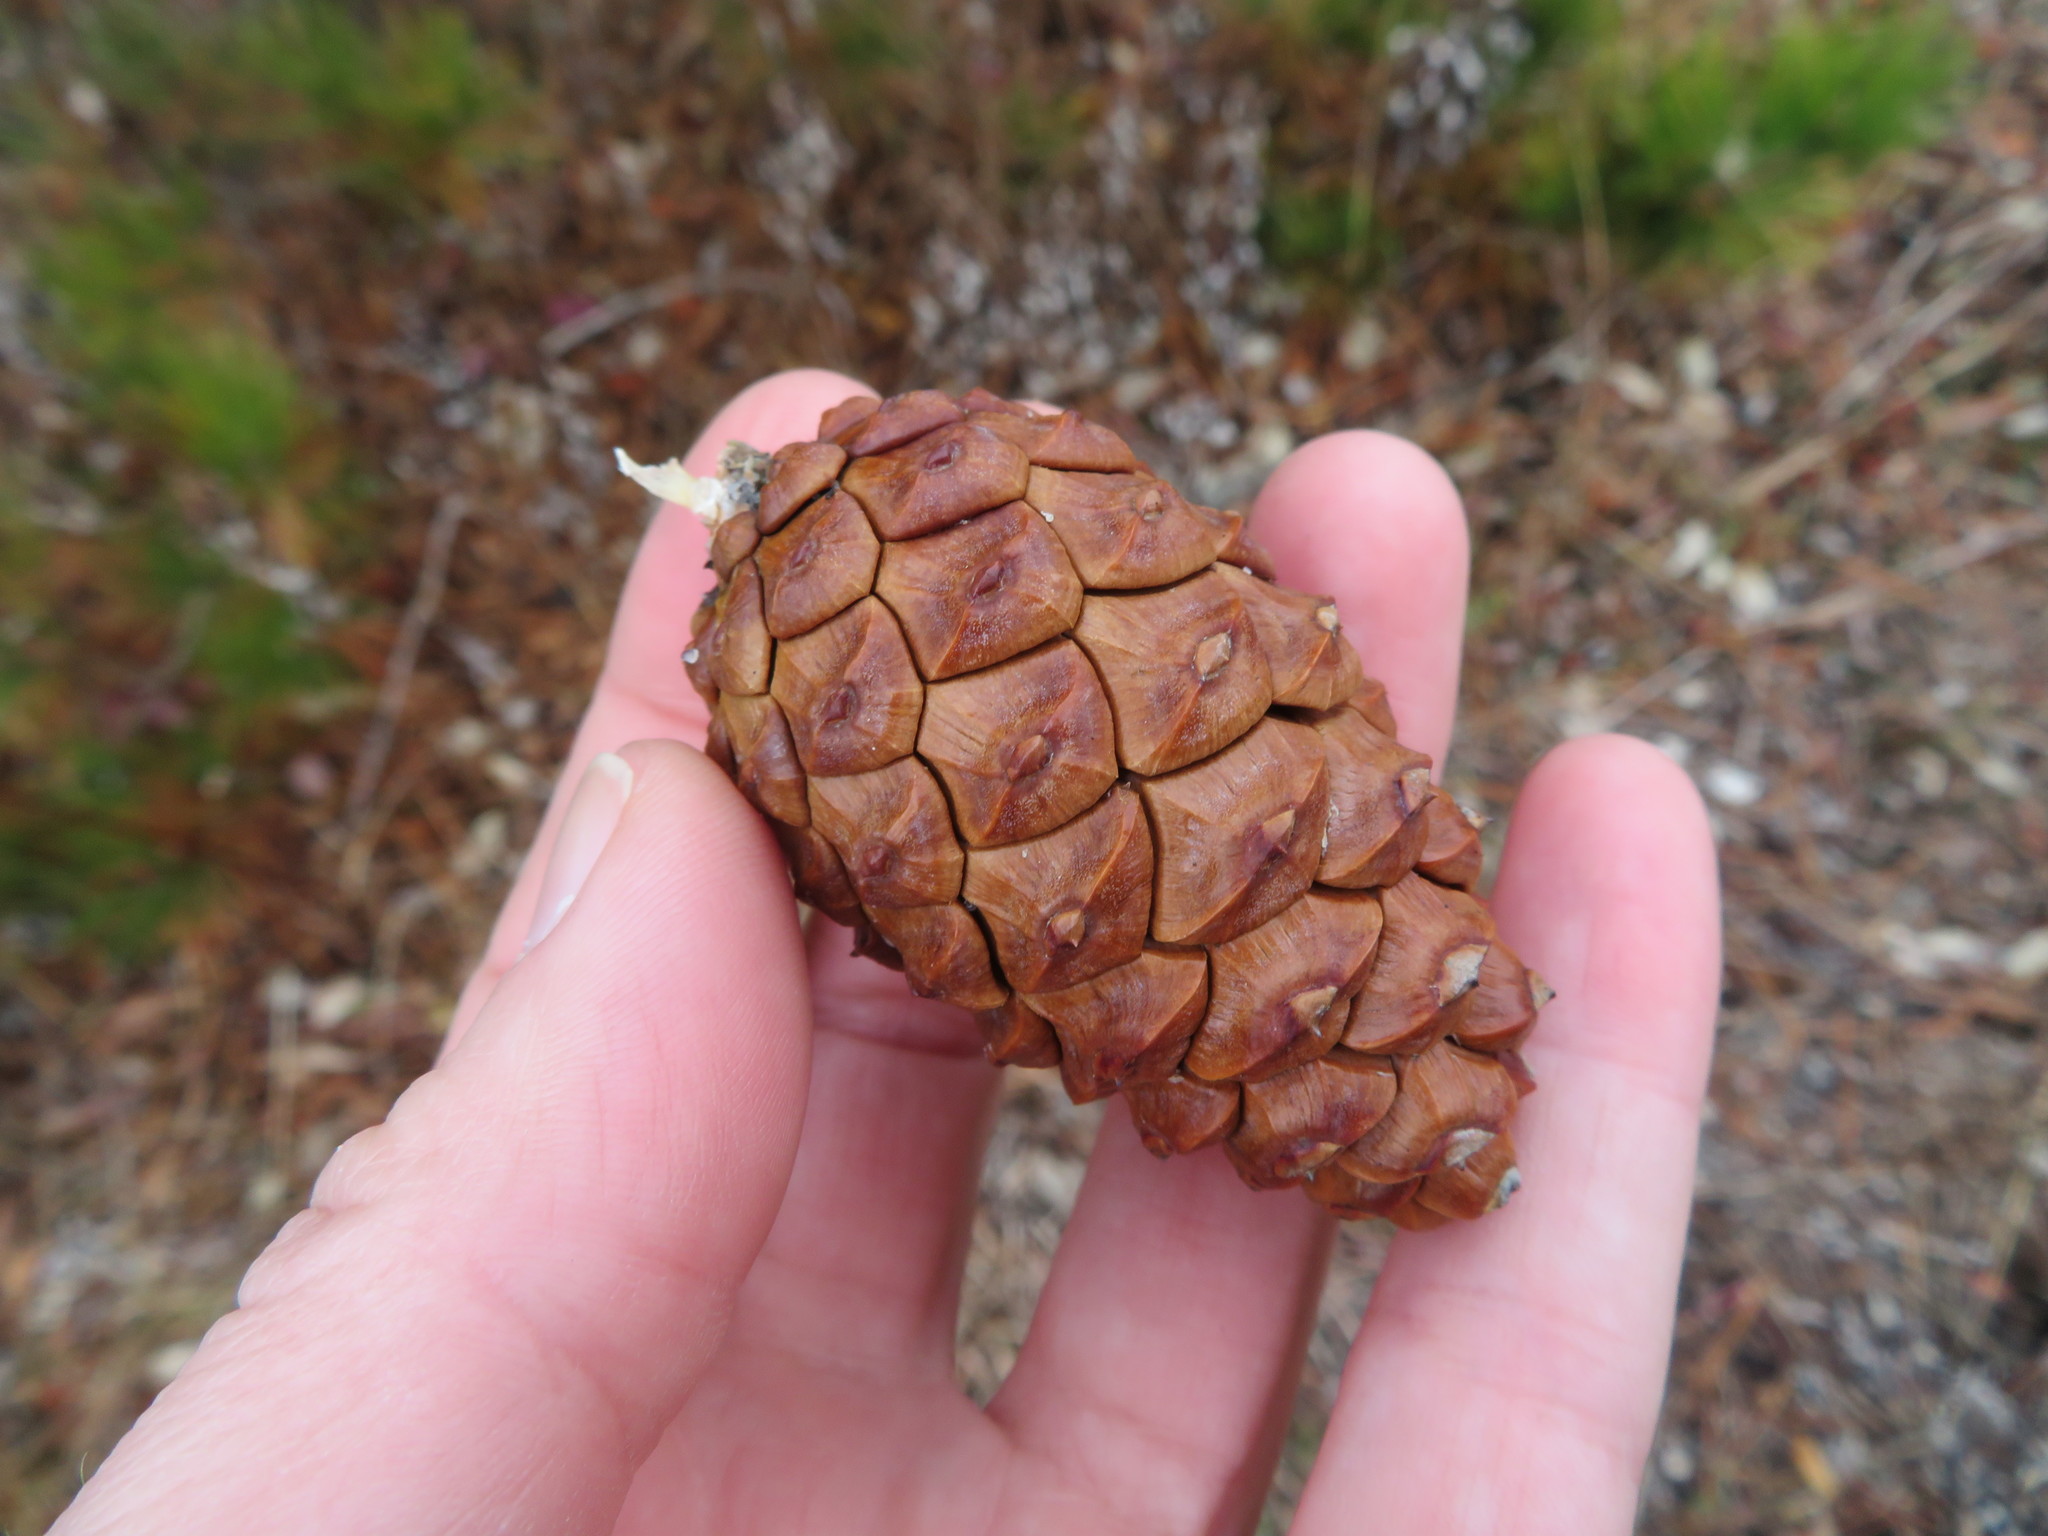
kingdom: Plantae
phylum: Tracheophyta
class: Pinopsida
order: Pinales
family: Pinaceae
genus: Pinus
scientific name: Pinus resinosa
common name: Norway pine
